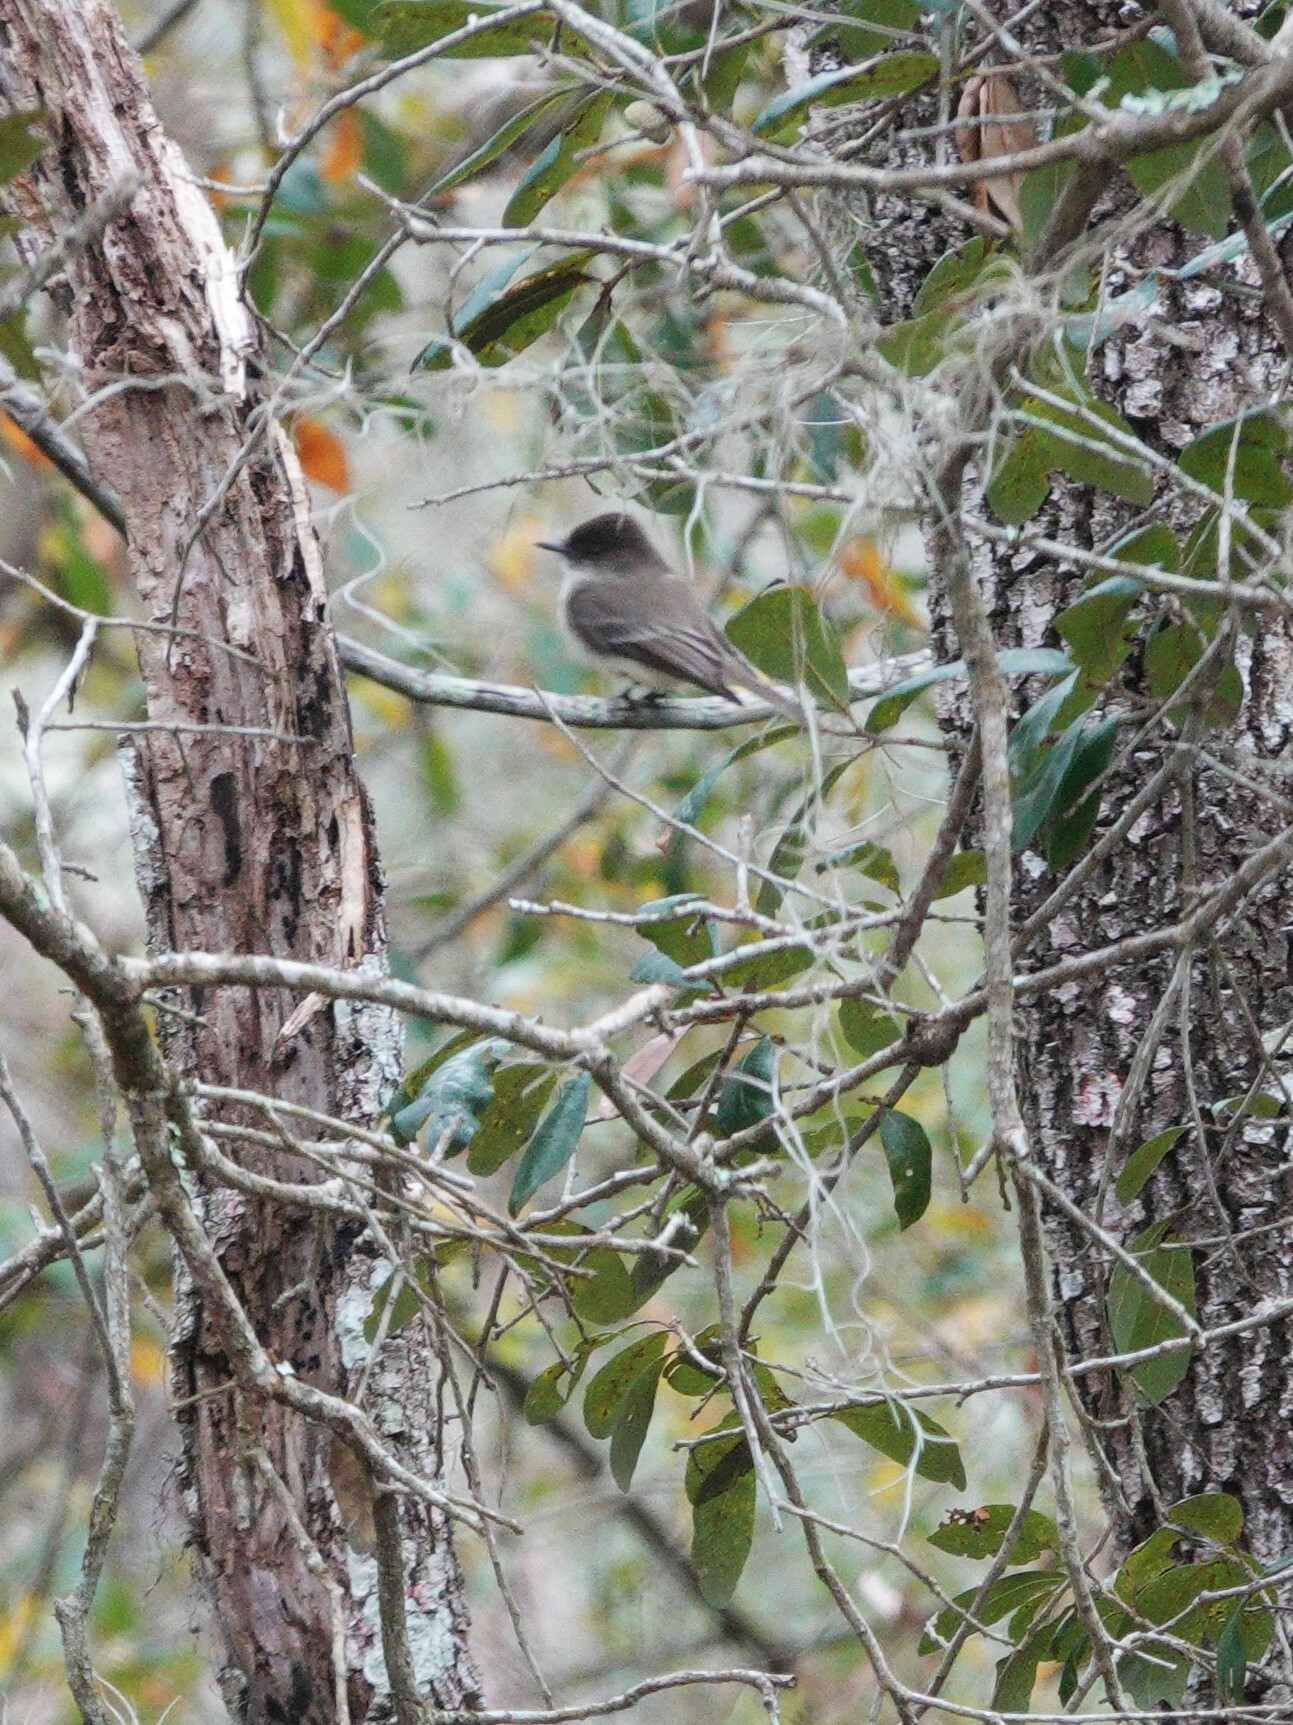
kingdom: Animalia
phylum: Chordata
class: Aves
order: Passeriformes
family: Tyrannidae
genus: Sayornis
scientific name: Sayornis phoebe
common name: Eastern phoebe
